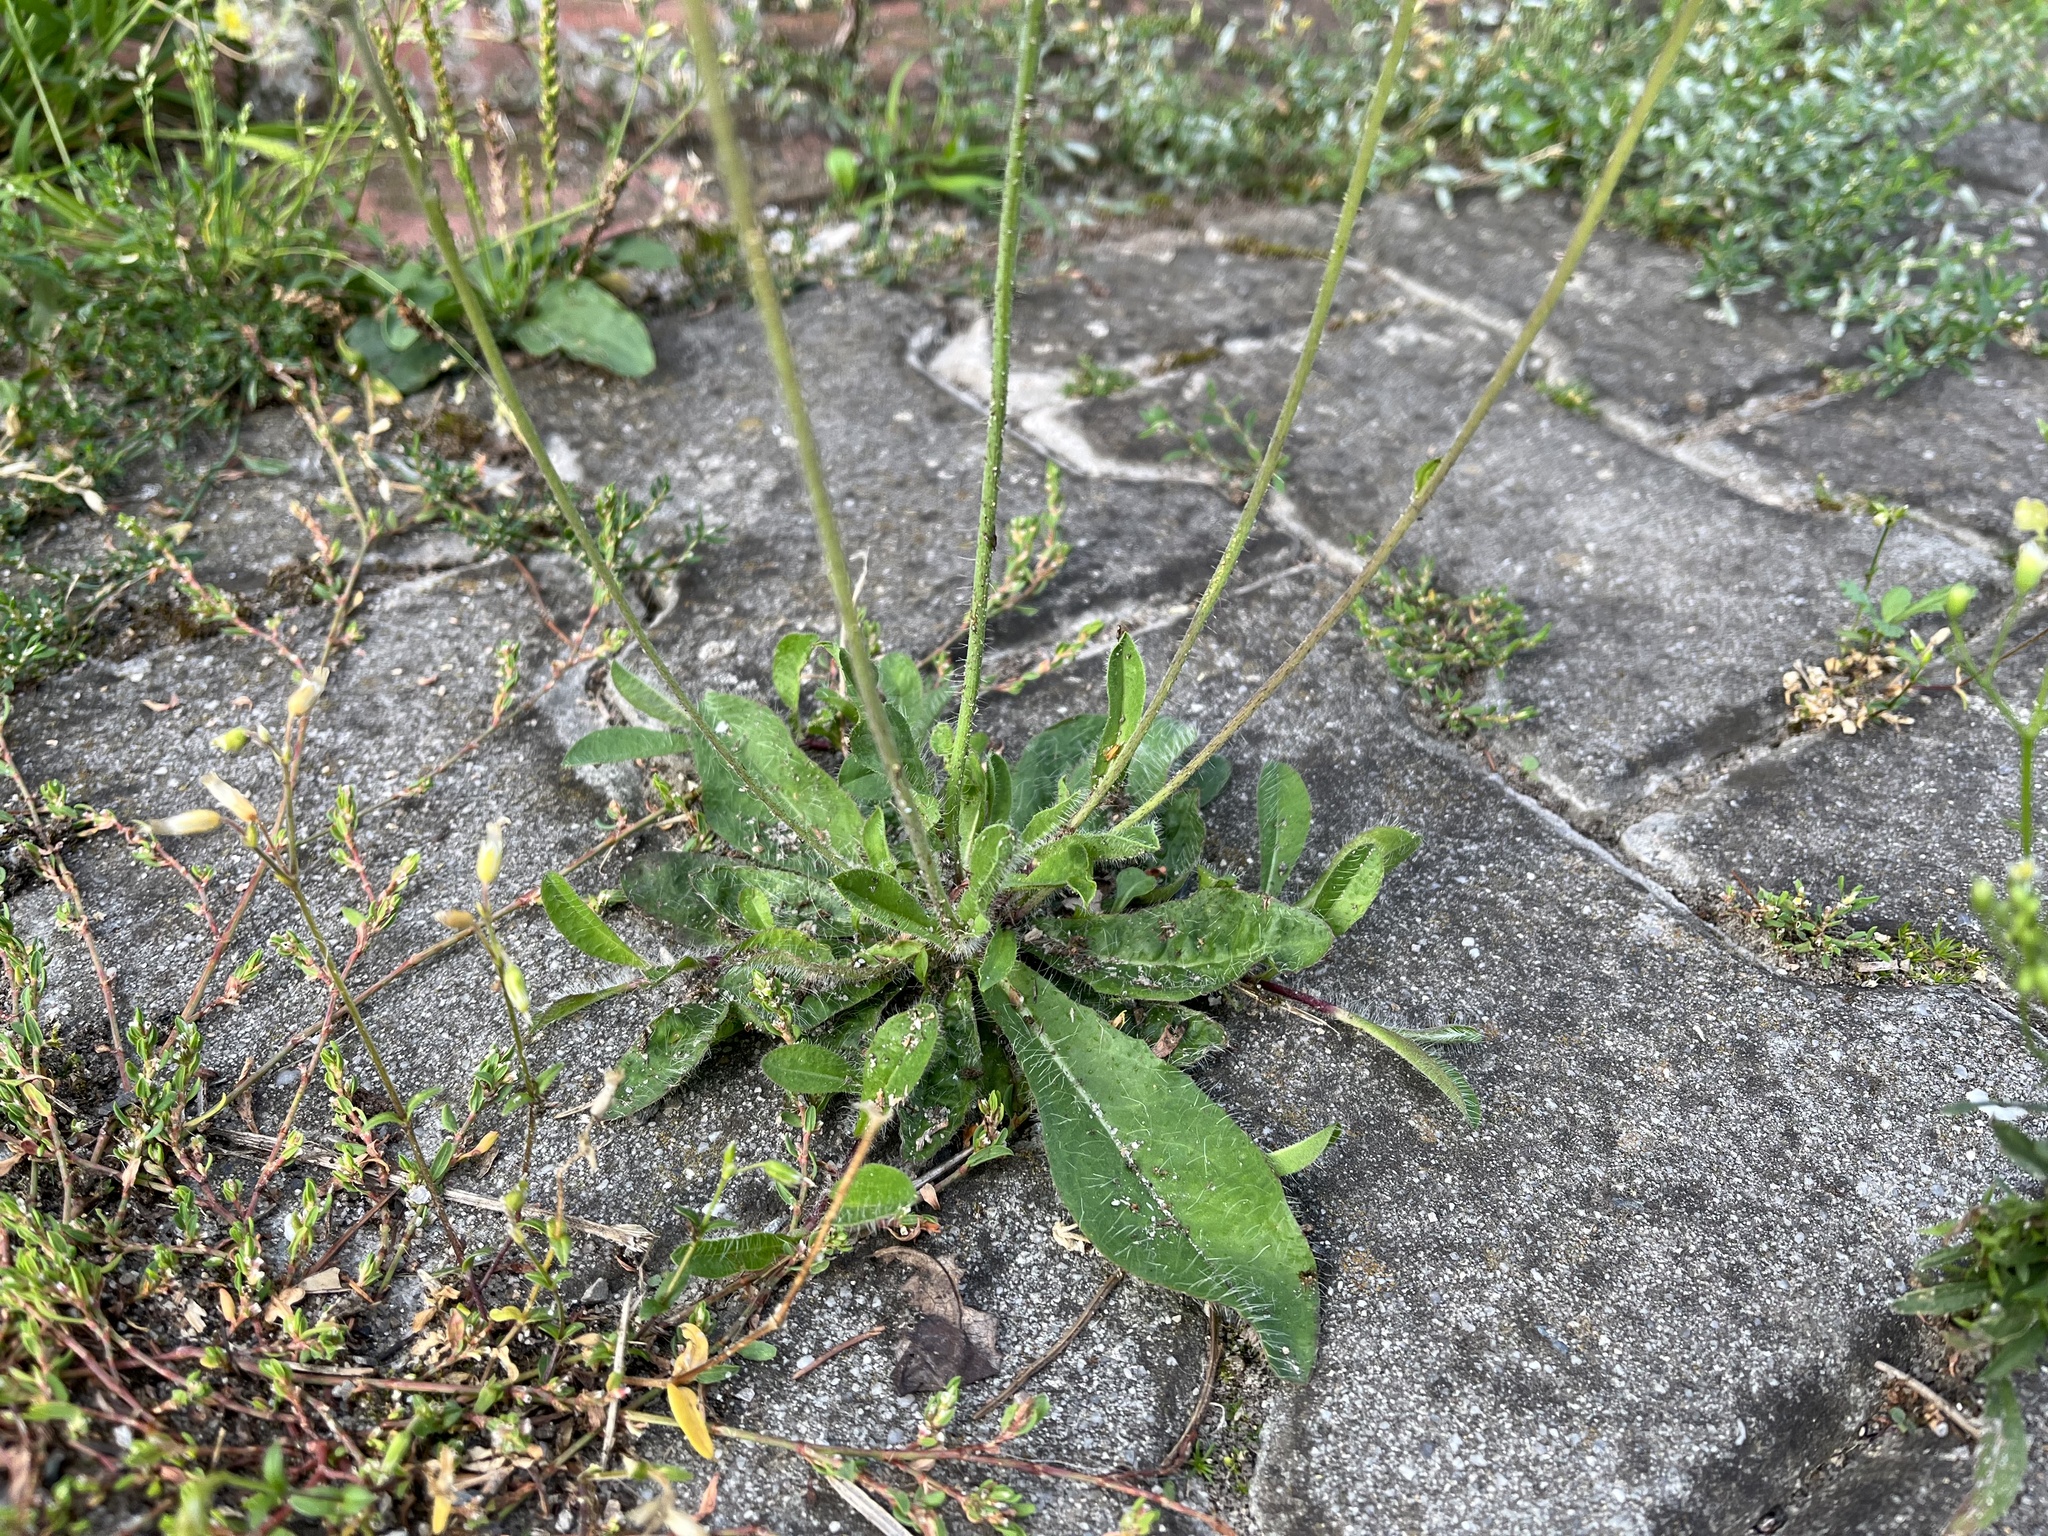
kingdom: Plantae
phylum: Tracheophyta
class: Magnoliopsida
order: Asterales
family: Asteraceae
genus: Pilosella
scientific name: Pilosella aurantiaca
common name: Fox-and-cubs
